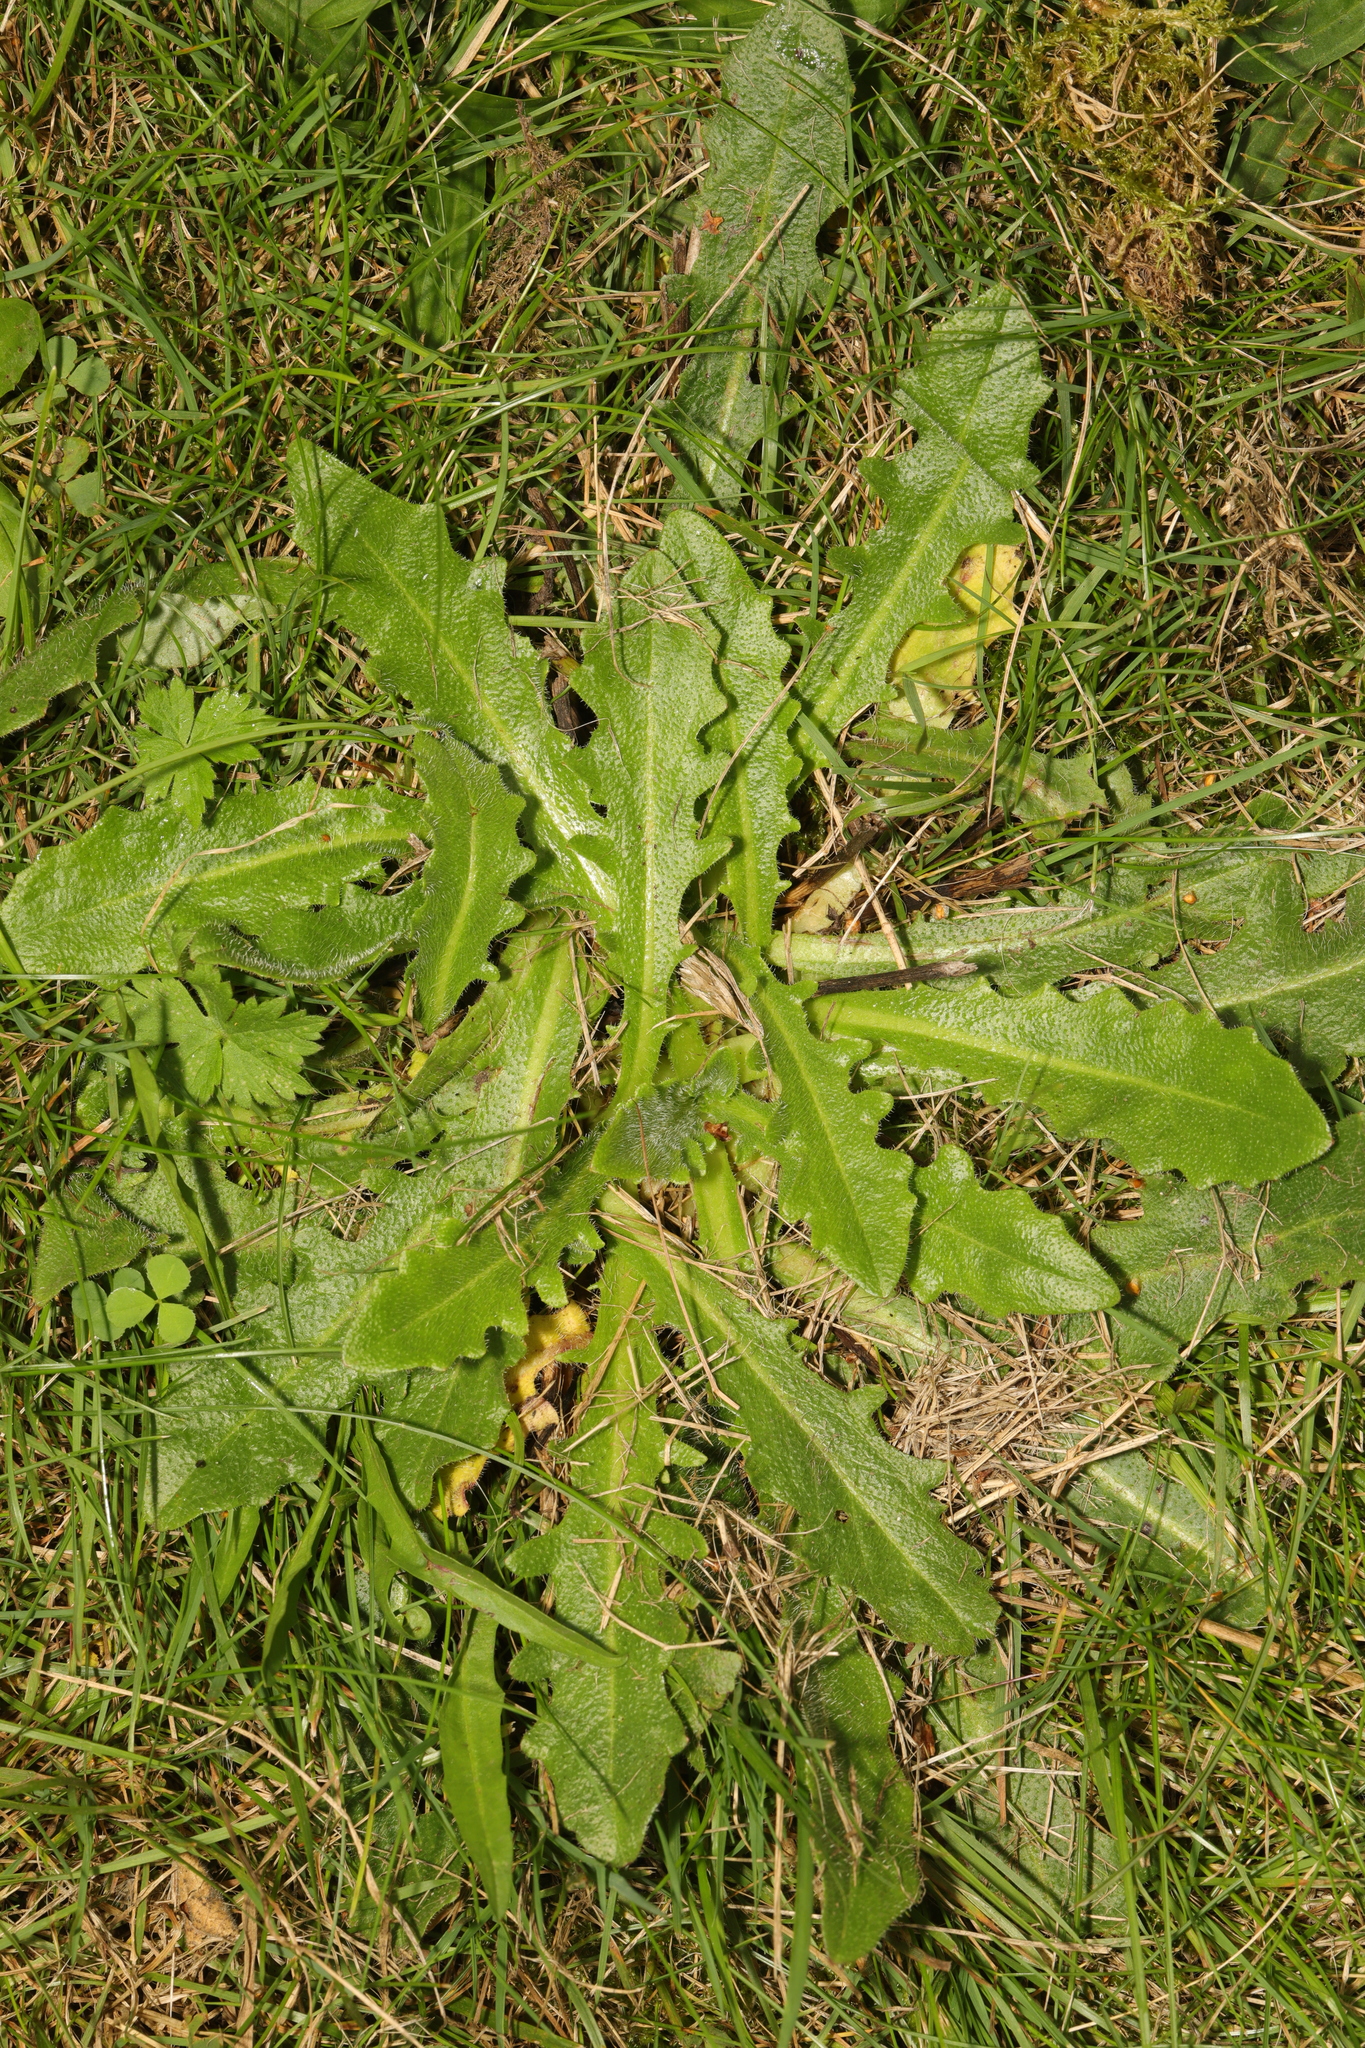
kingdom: Plantae
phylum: Tracheophyta
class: Magnoliopsida
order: Asterales
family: Asteraceae
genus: Hypochaeris
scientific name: Hypochaeris radicata
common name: Flatweed
